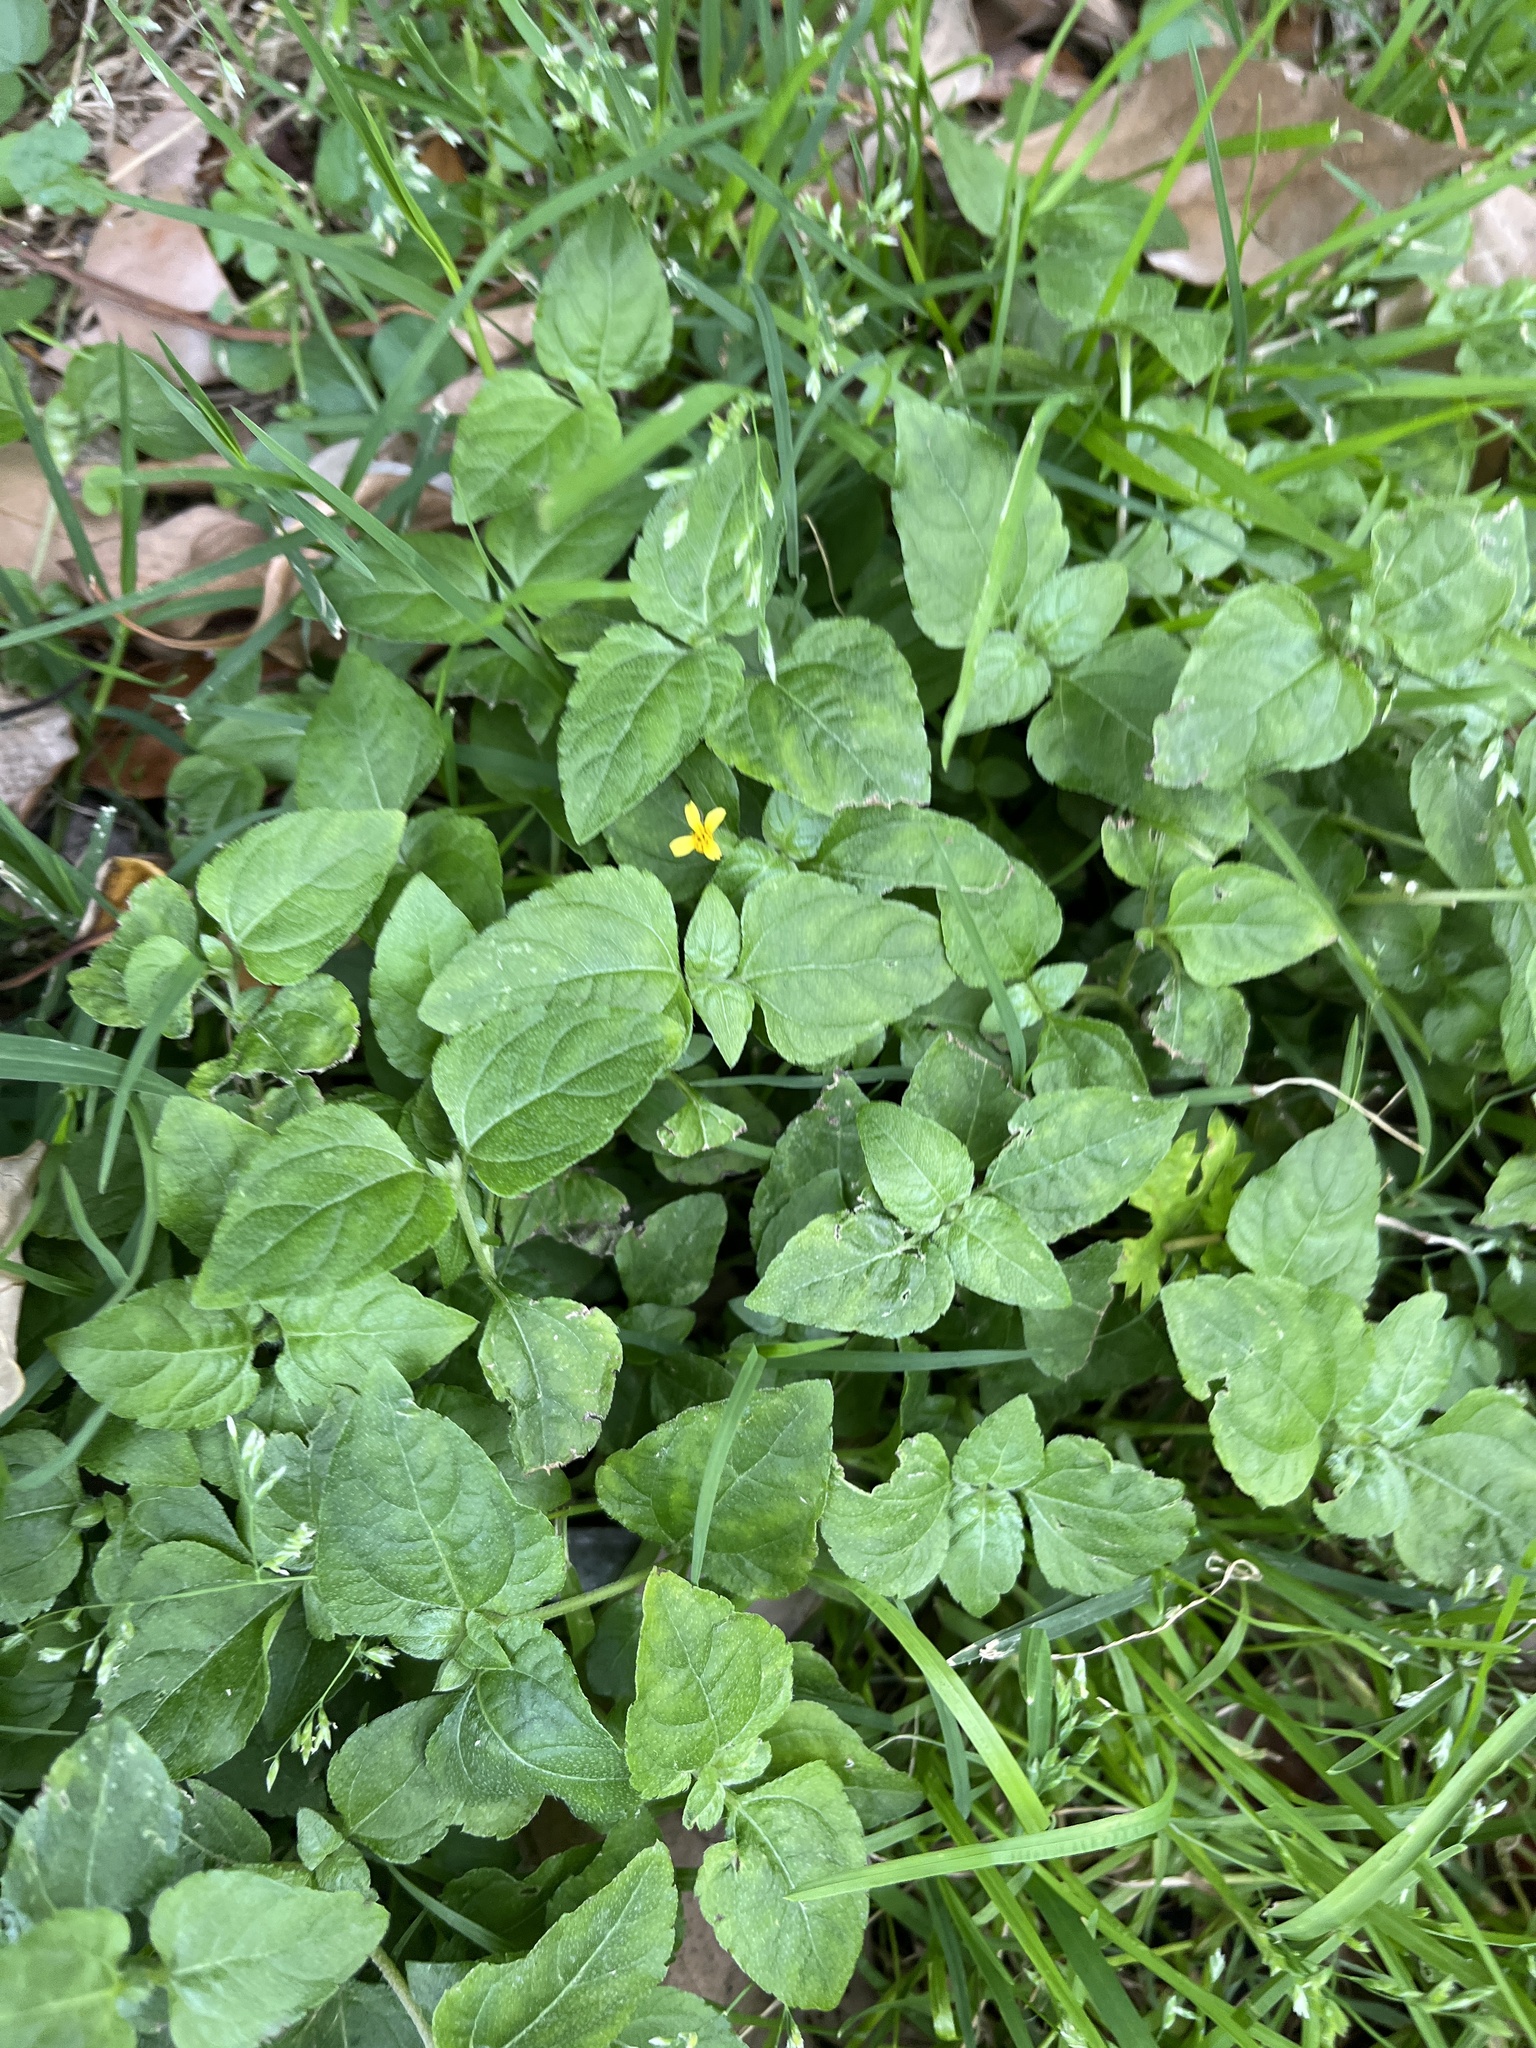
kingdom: Plantae
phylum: Tracheophyta
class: Magnoliopsida
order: Asterales
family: Asteraceae
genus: Calyptocarpus
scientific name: Calyptocarpus vialis
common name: Straggler daisy
